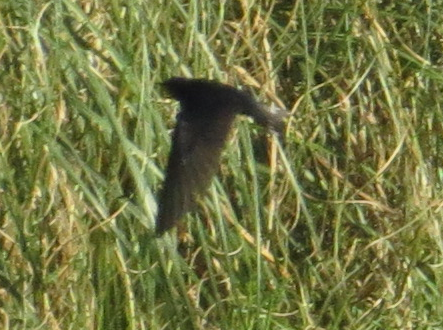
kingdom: Animalia
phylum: Chordata
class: Aves
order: Passeriformes
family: Hirundinidae
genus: Hirundo
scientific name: Hirundo rustica
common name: Barn swallow
